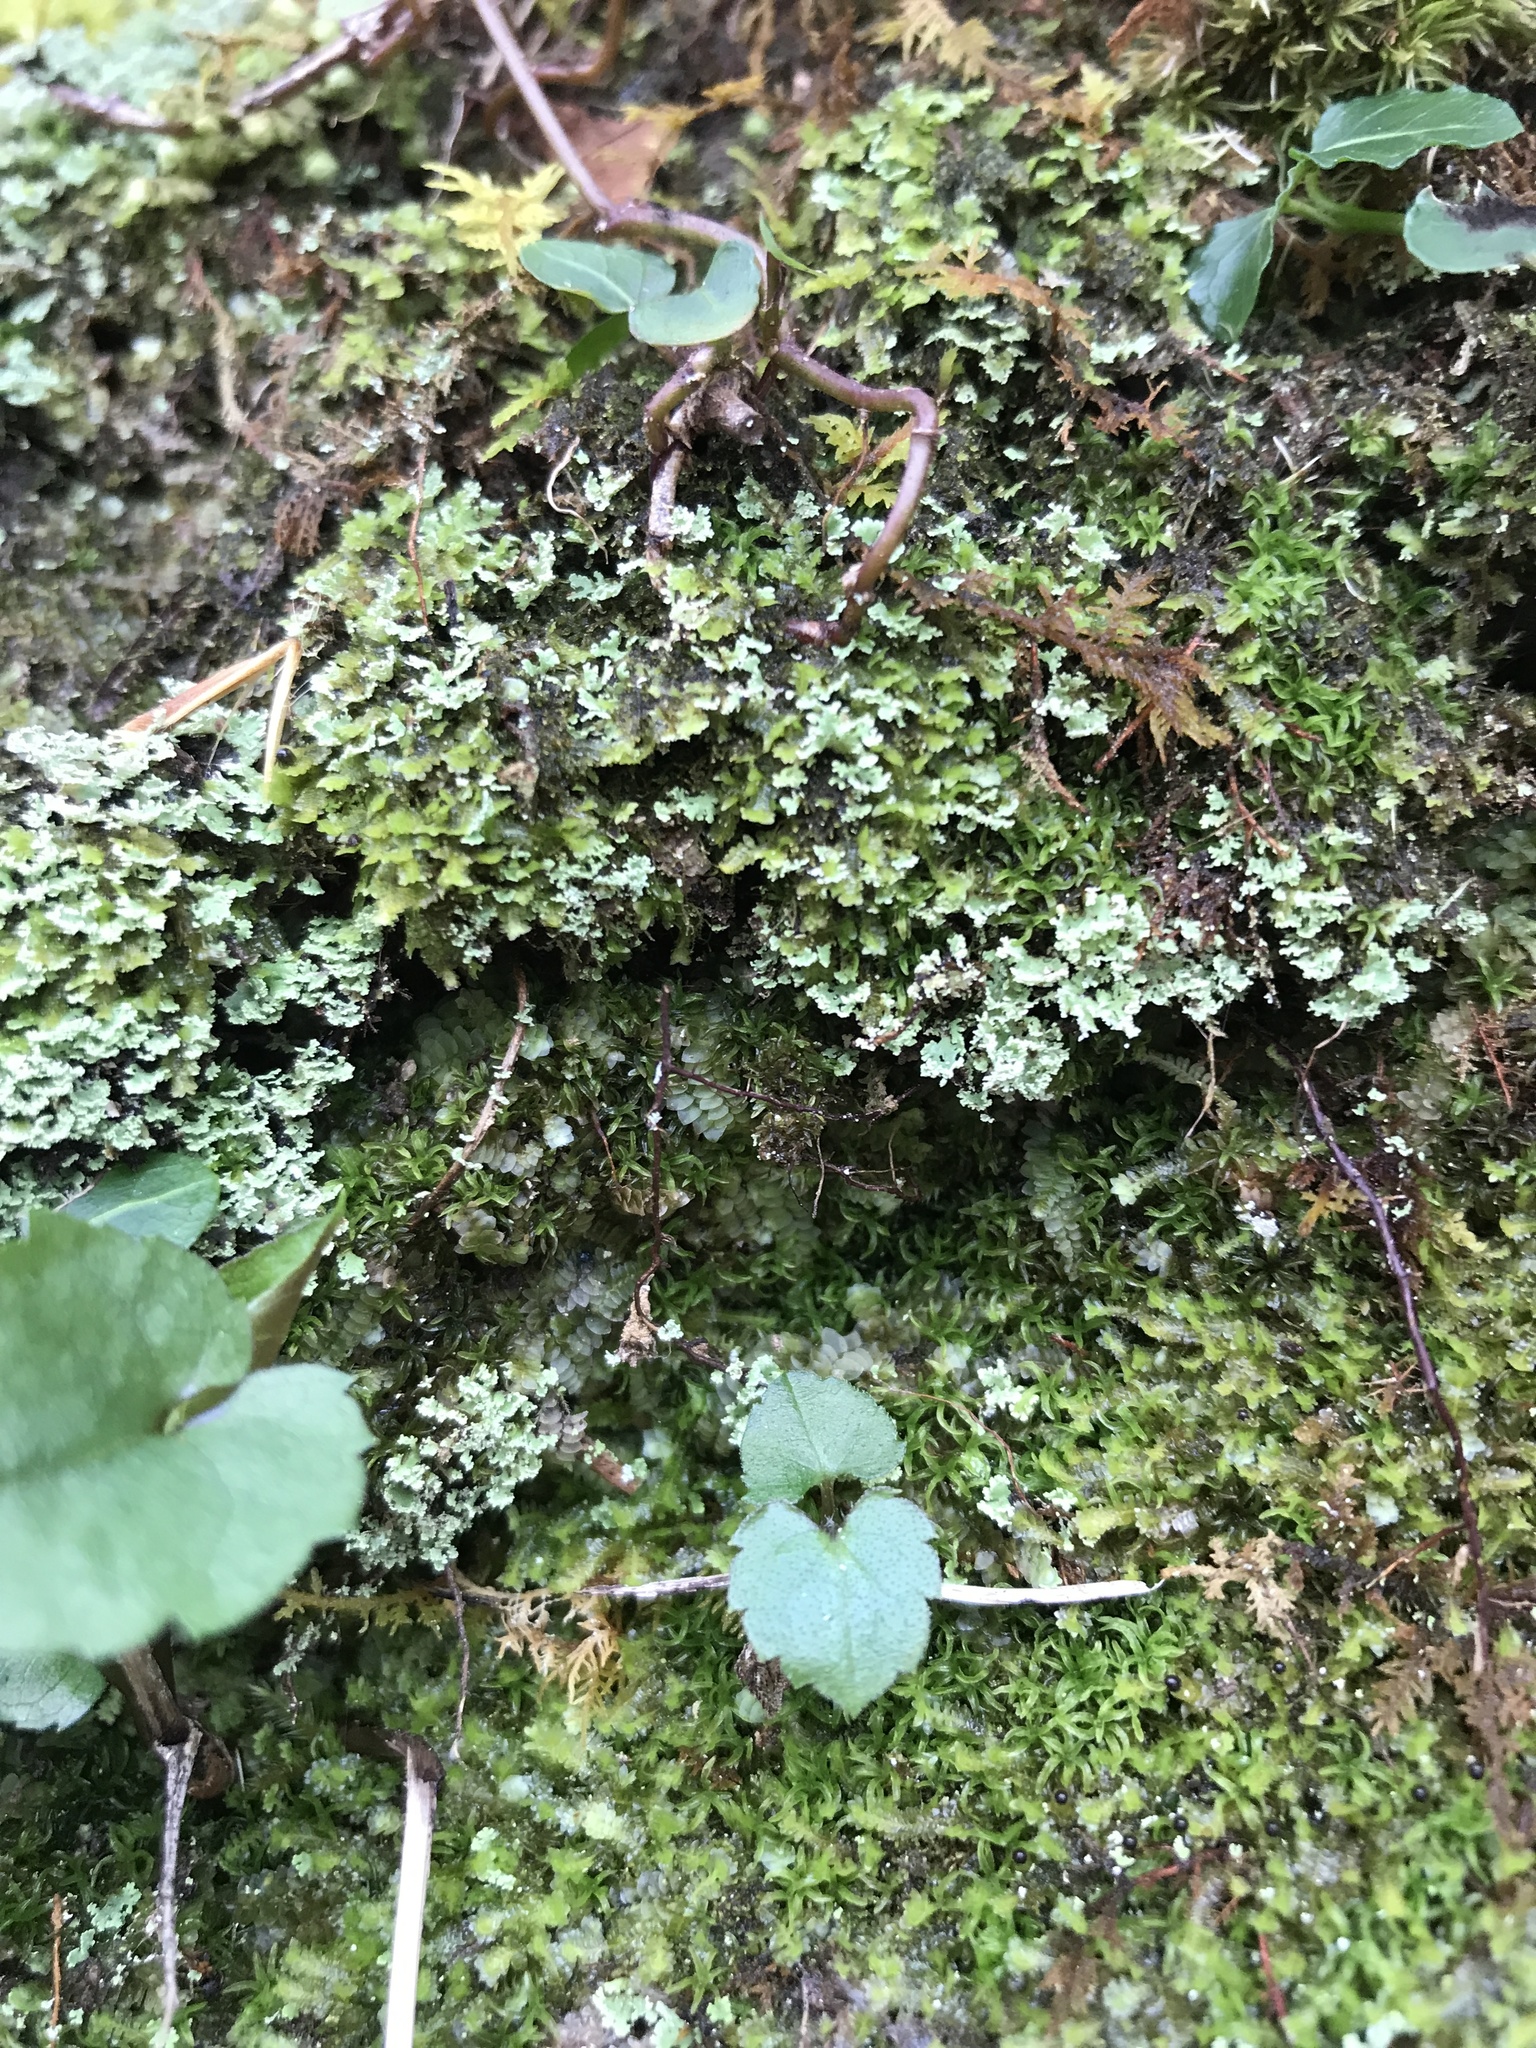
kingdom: Plantae
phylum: Marchantiophyta
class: Jungermanniopsida
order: Jungermanniales
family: Scapaniaceae
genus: Diplophyllum
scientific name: Diplophyllum apiculatum
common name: Sharp-pointed earwort
